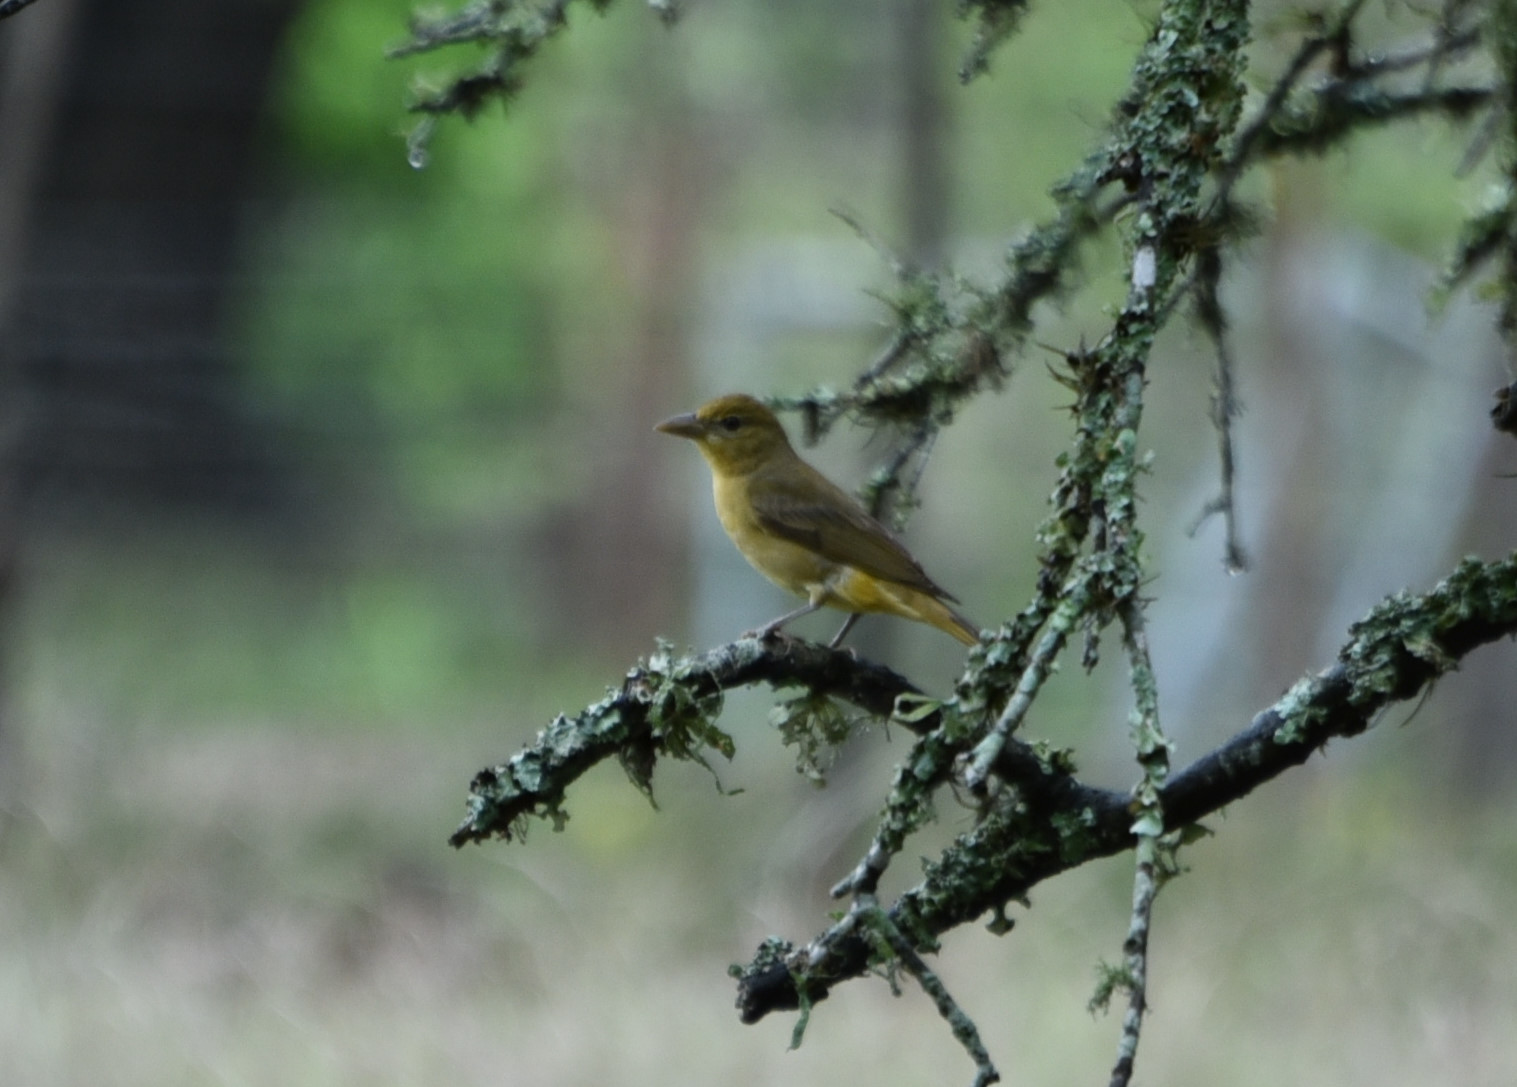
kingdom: Animalia
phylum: Chordata
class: Aves
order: Passeriformes
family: Cardinalidae
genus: Piranga
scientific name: Piranga rubra
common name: Summer tanager
